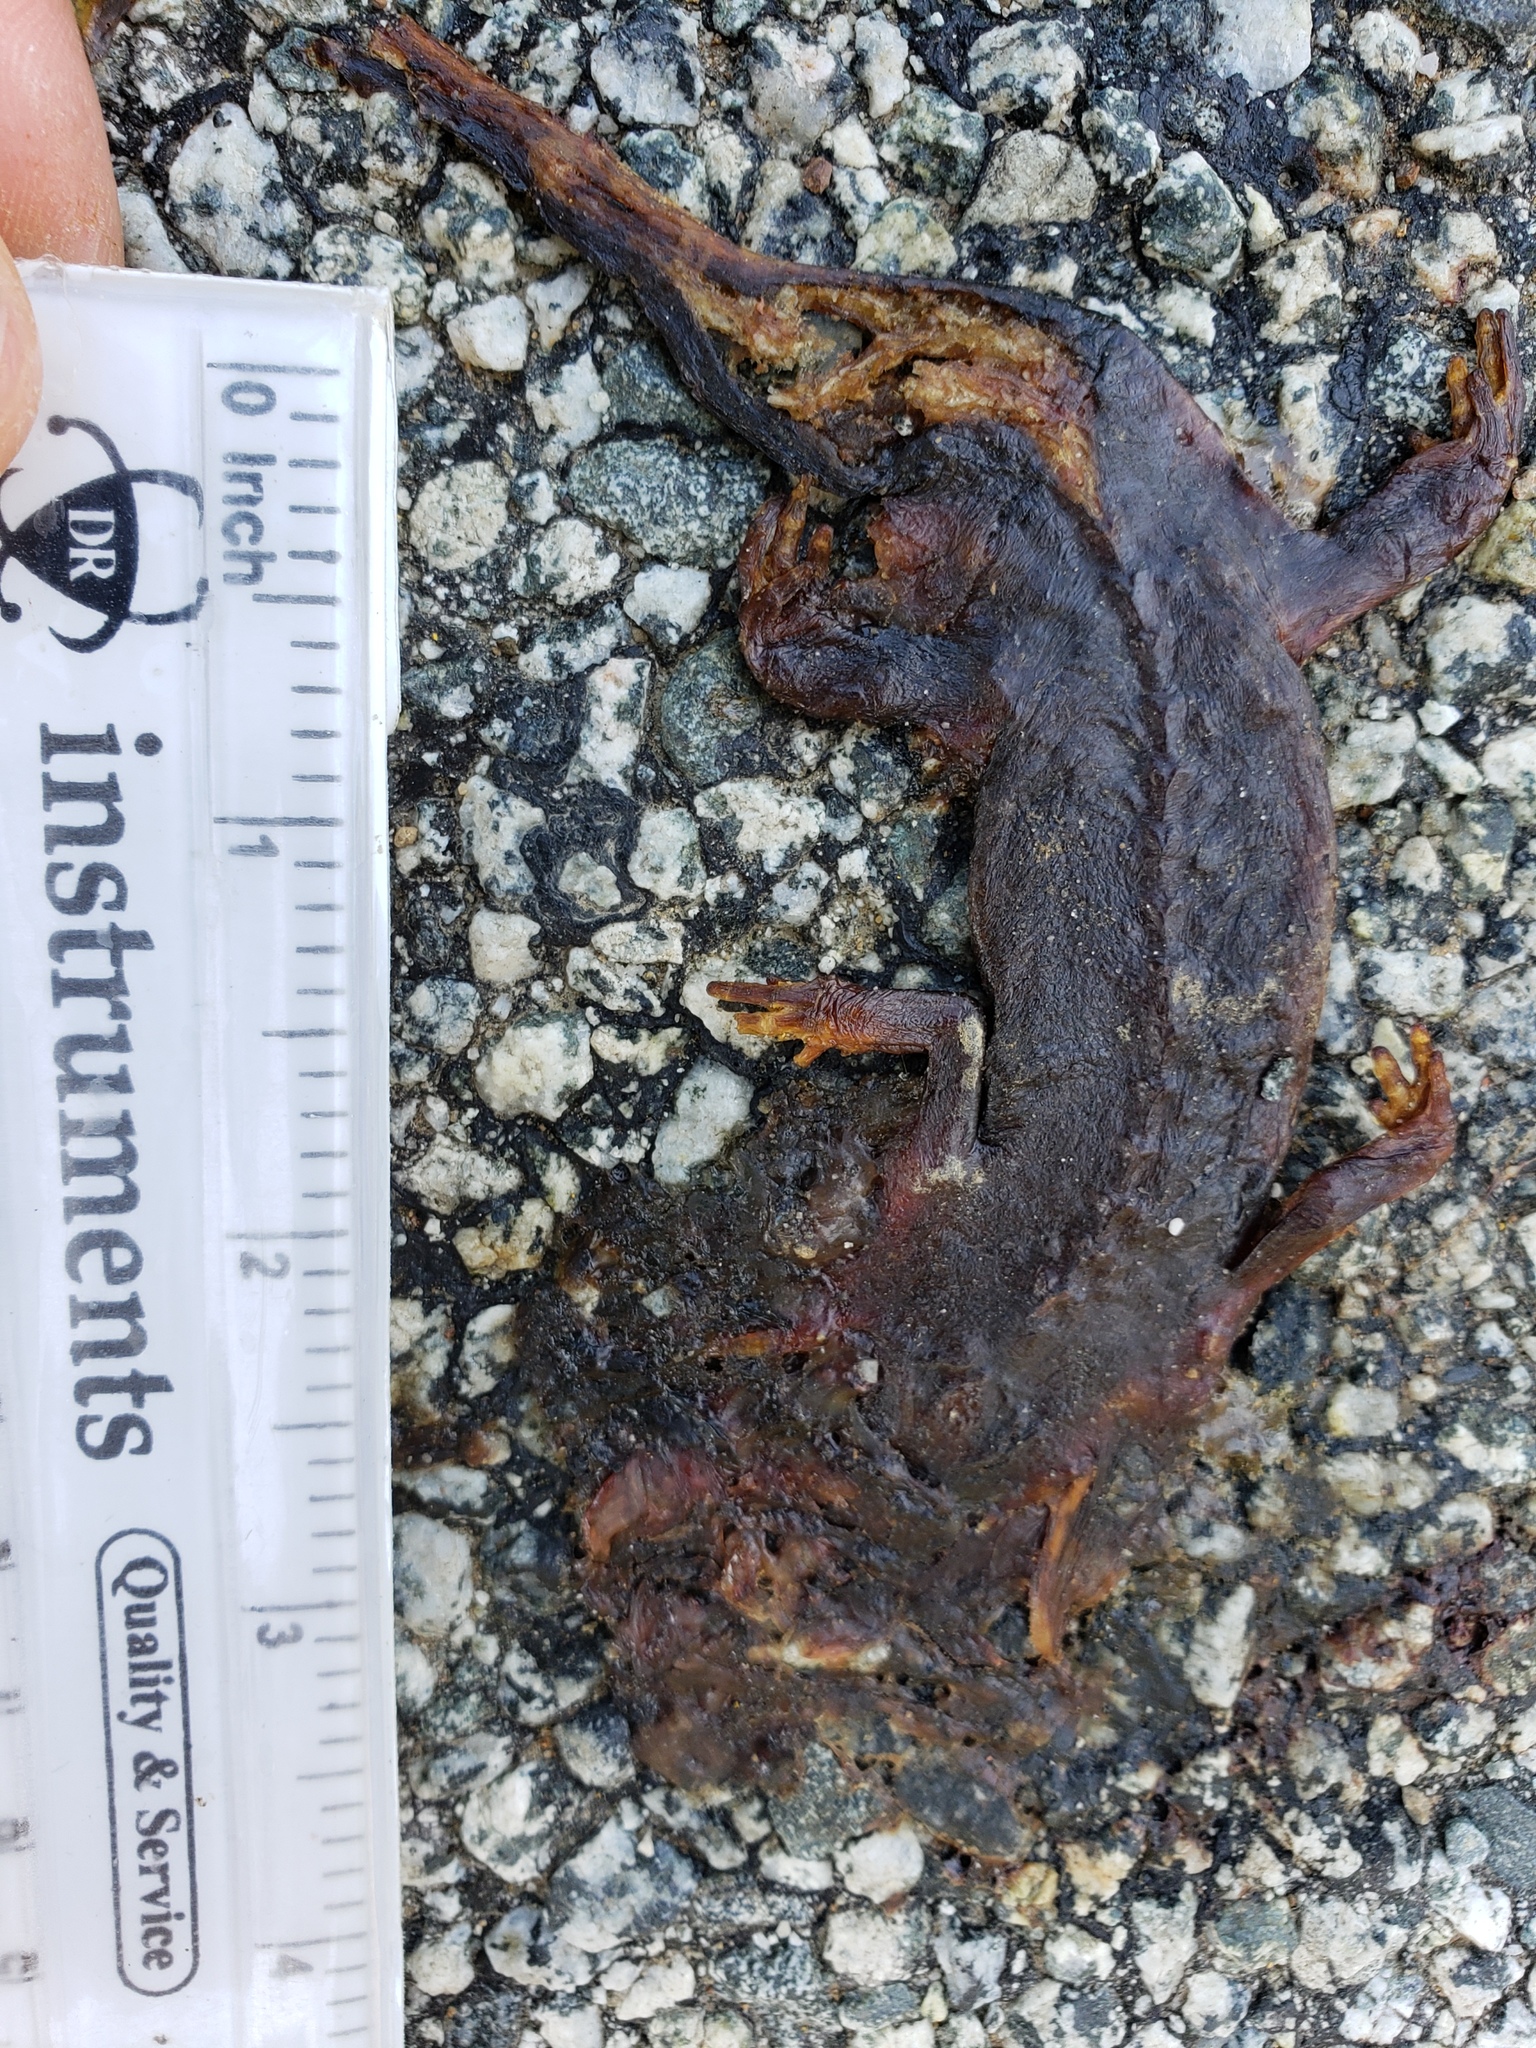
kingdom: Animalia
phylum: Chordata
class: Amphibia
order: Caudata
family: Salamandridae
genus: Taricha
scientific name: Taricha
